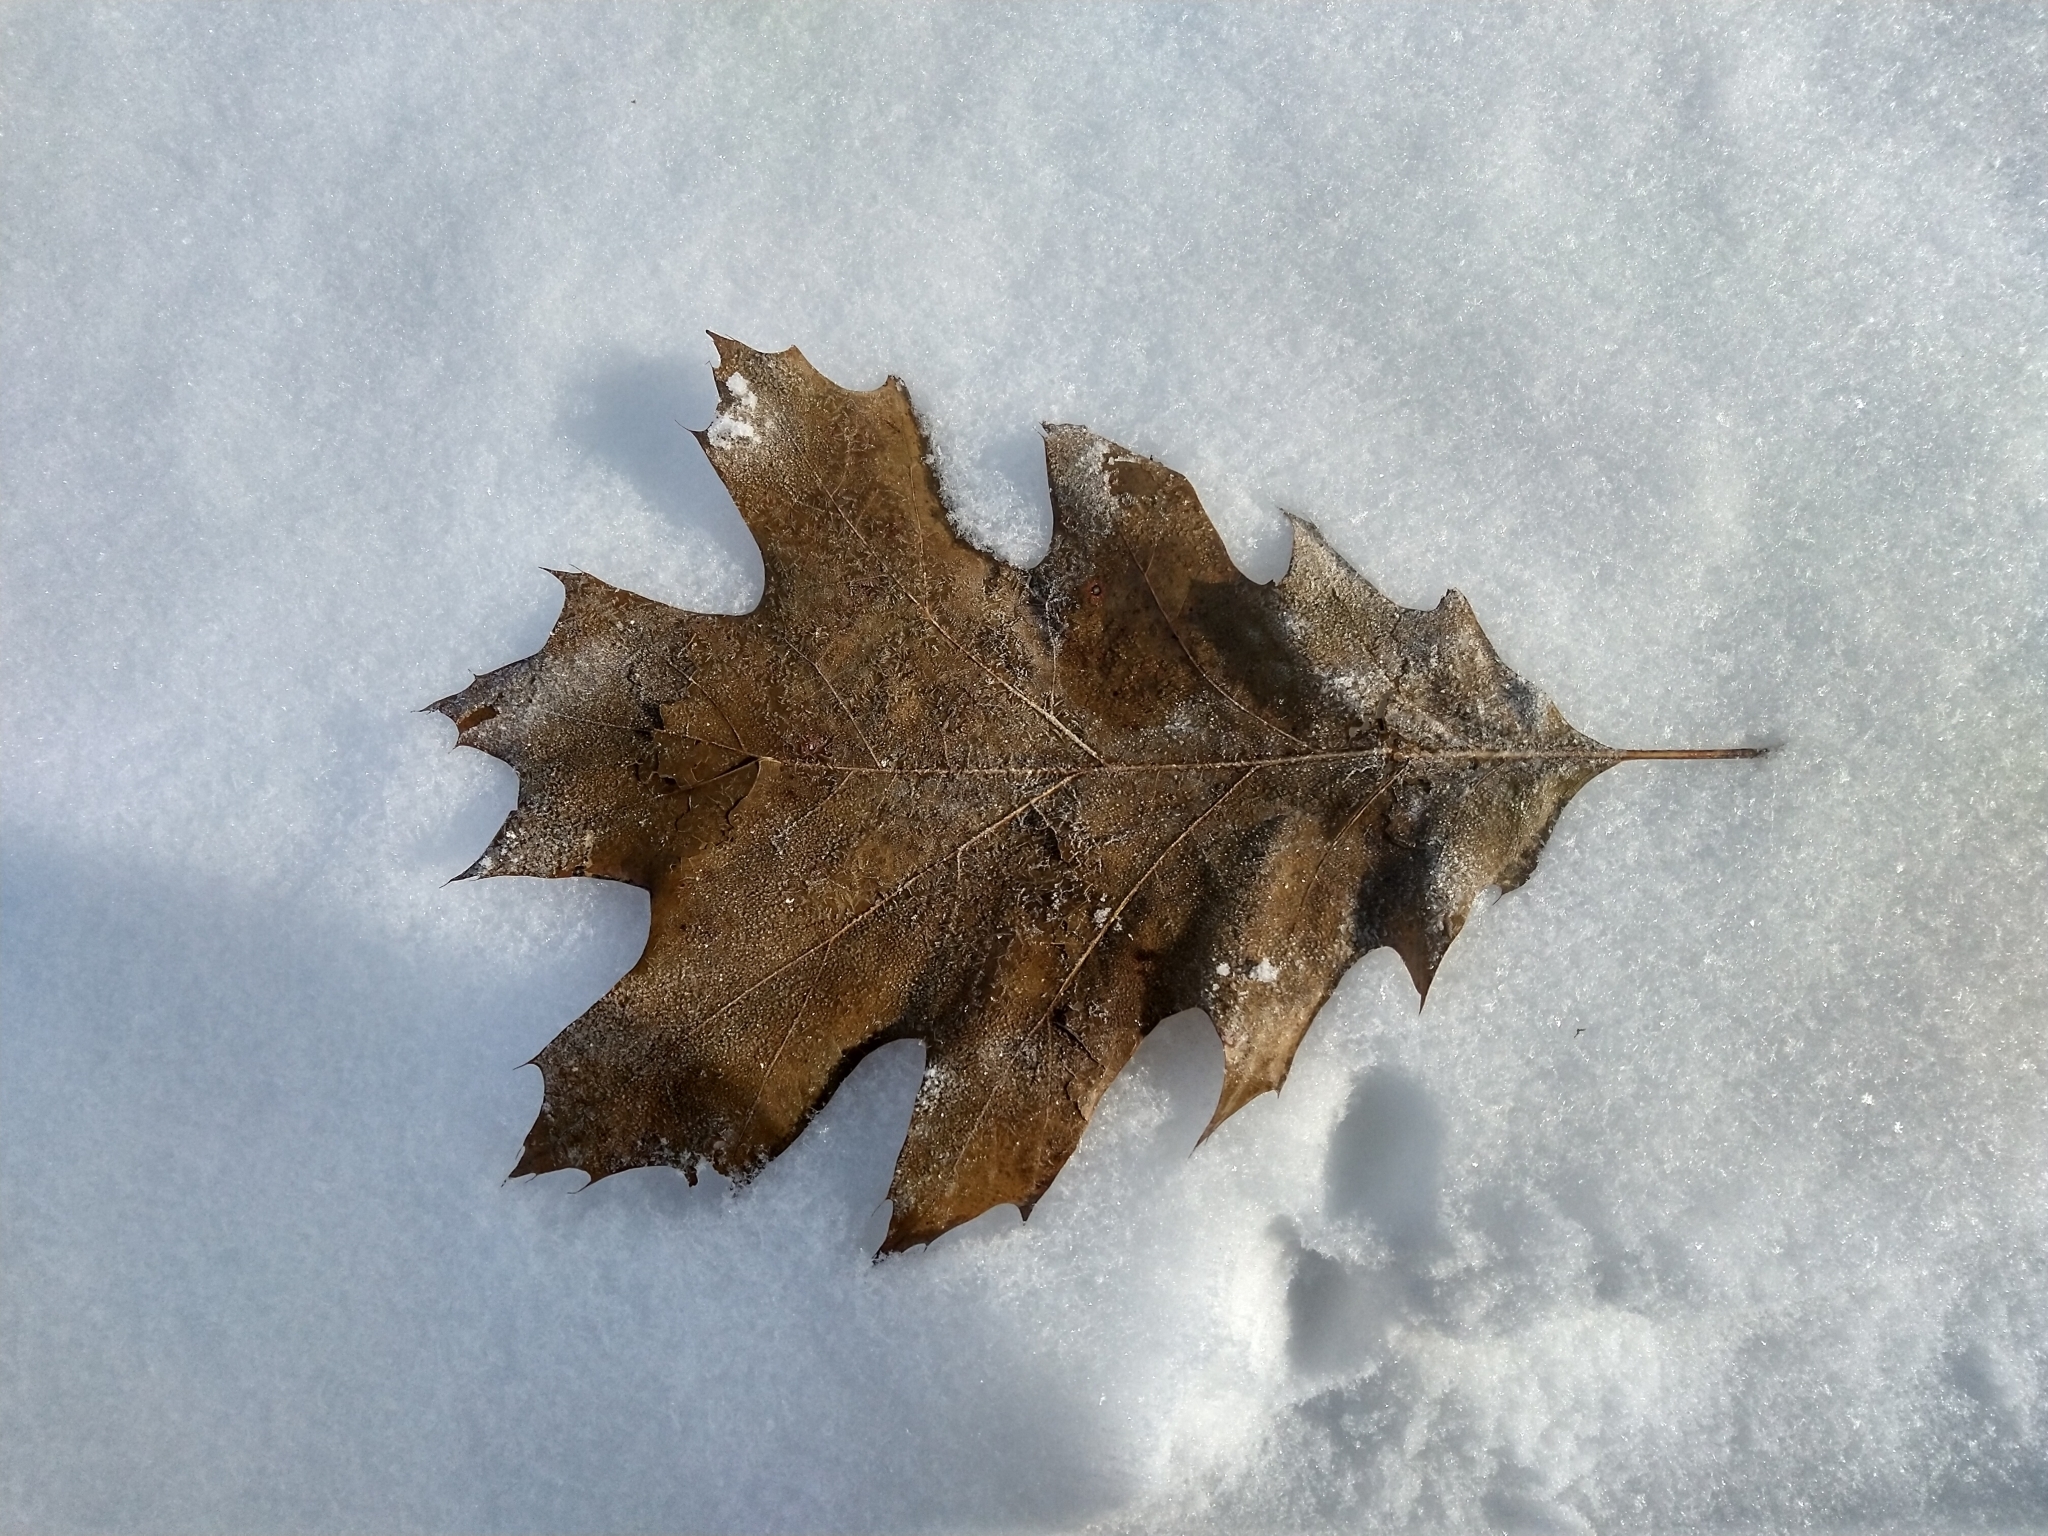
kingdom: Plantae
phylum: Tracheophyta
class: Magnoliopsida
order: Fagales
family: Fagaceae
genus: Quercus
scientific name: Quercus rubra
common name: Red oak
